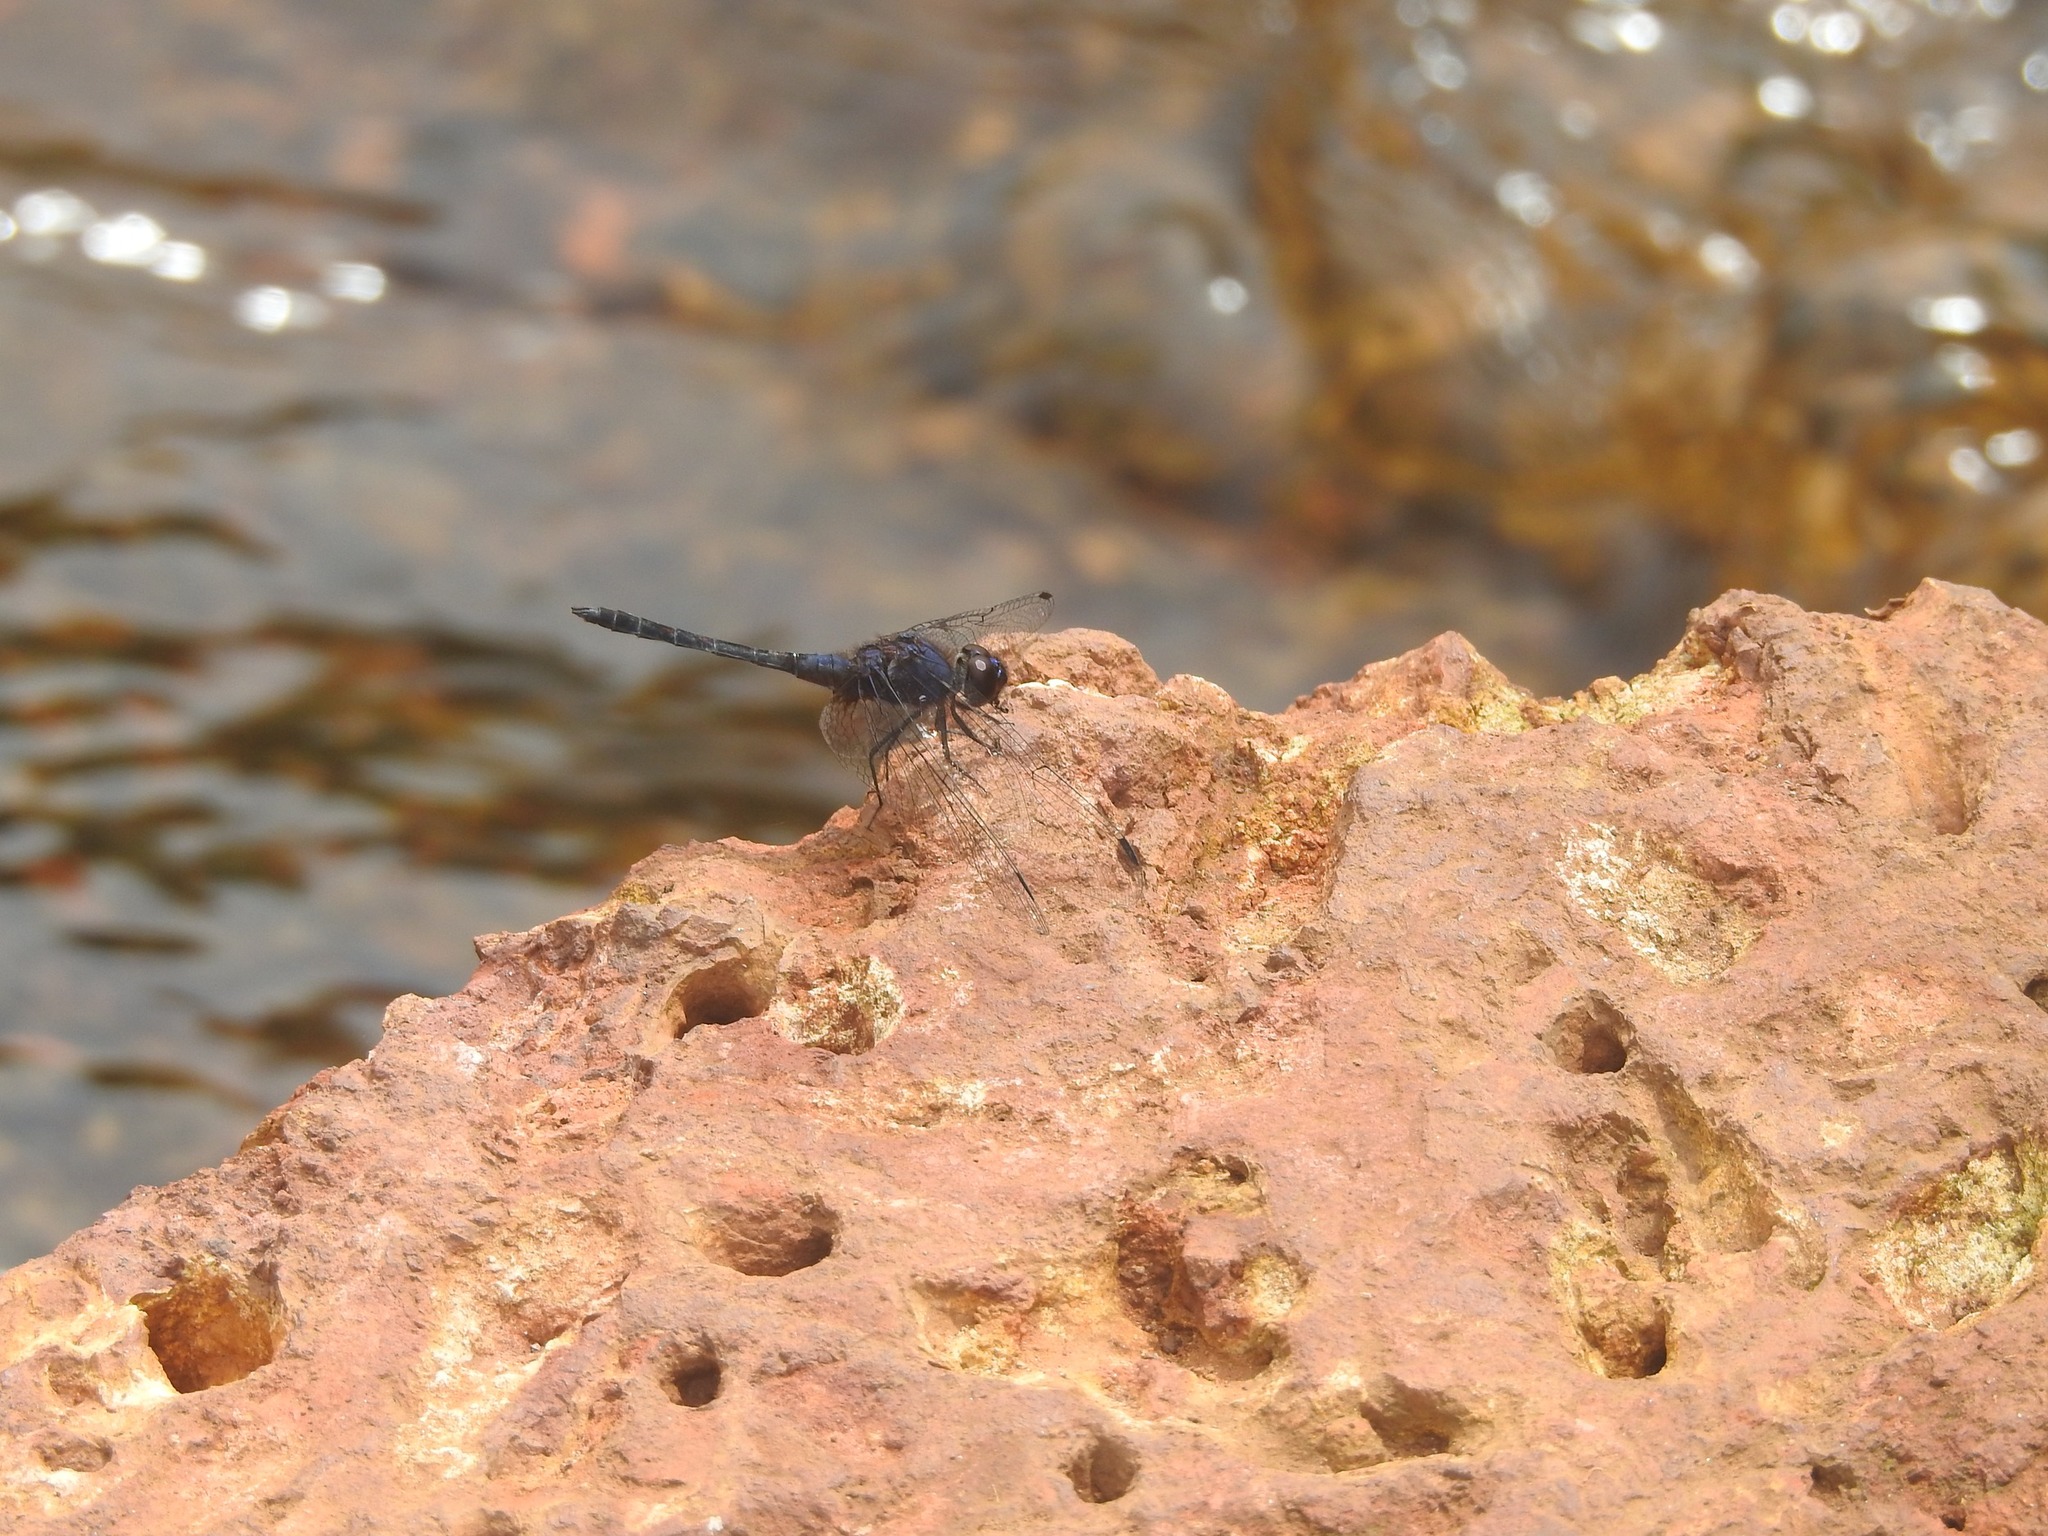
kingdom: Animalia
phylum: Arthropoda
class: Insecta
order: Odonata
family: Libellulidae
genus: Trithemis
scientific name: Trithemis festiva
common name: Indigo dropwing
